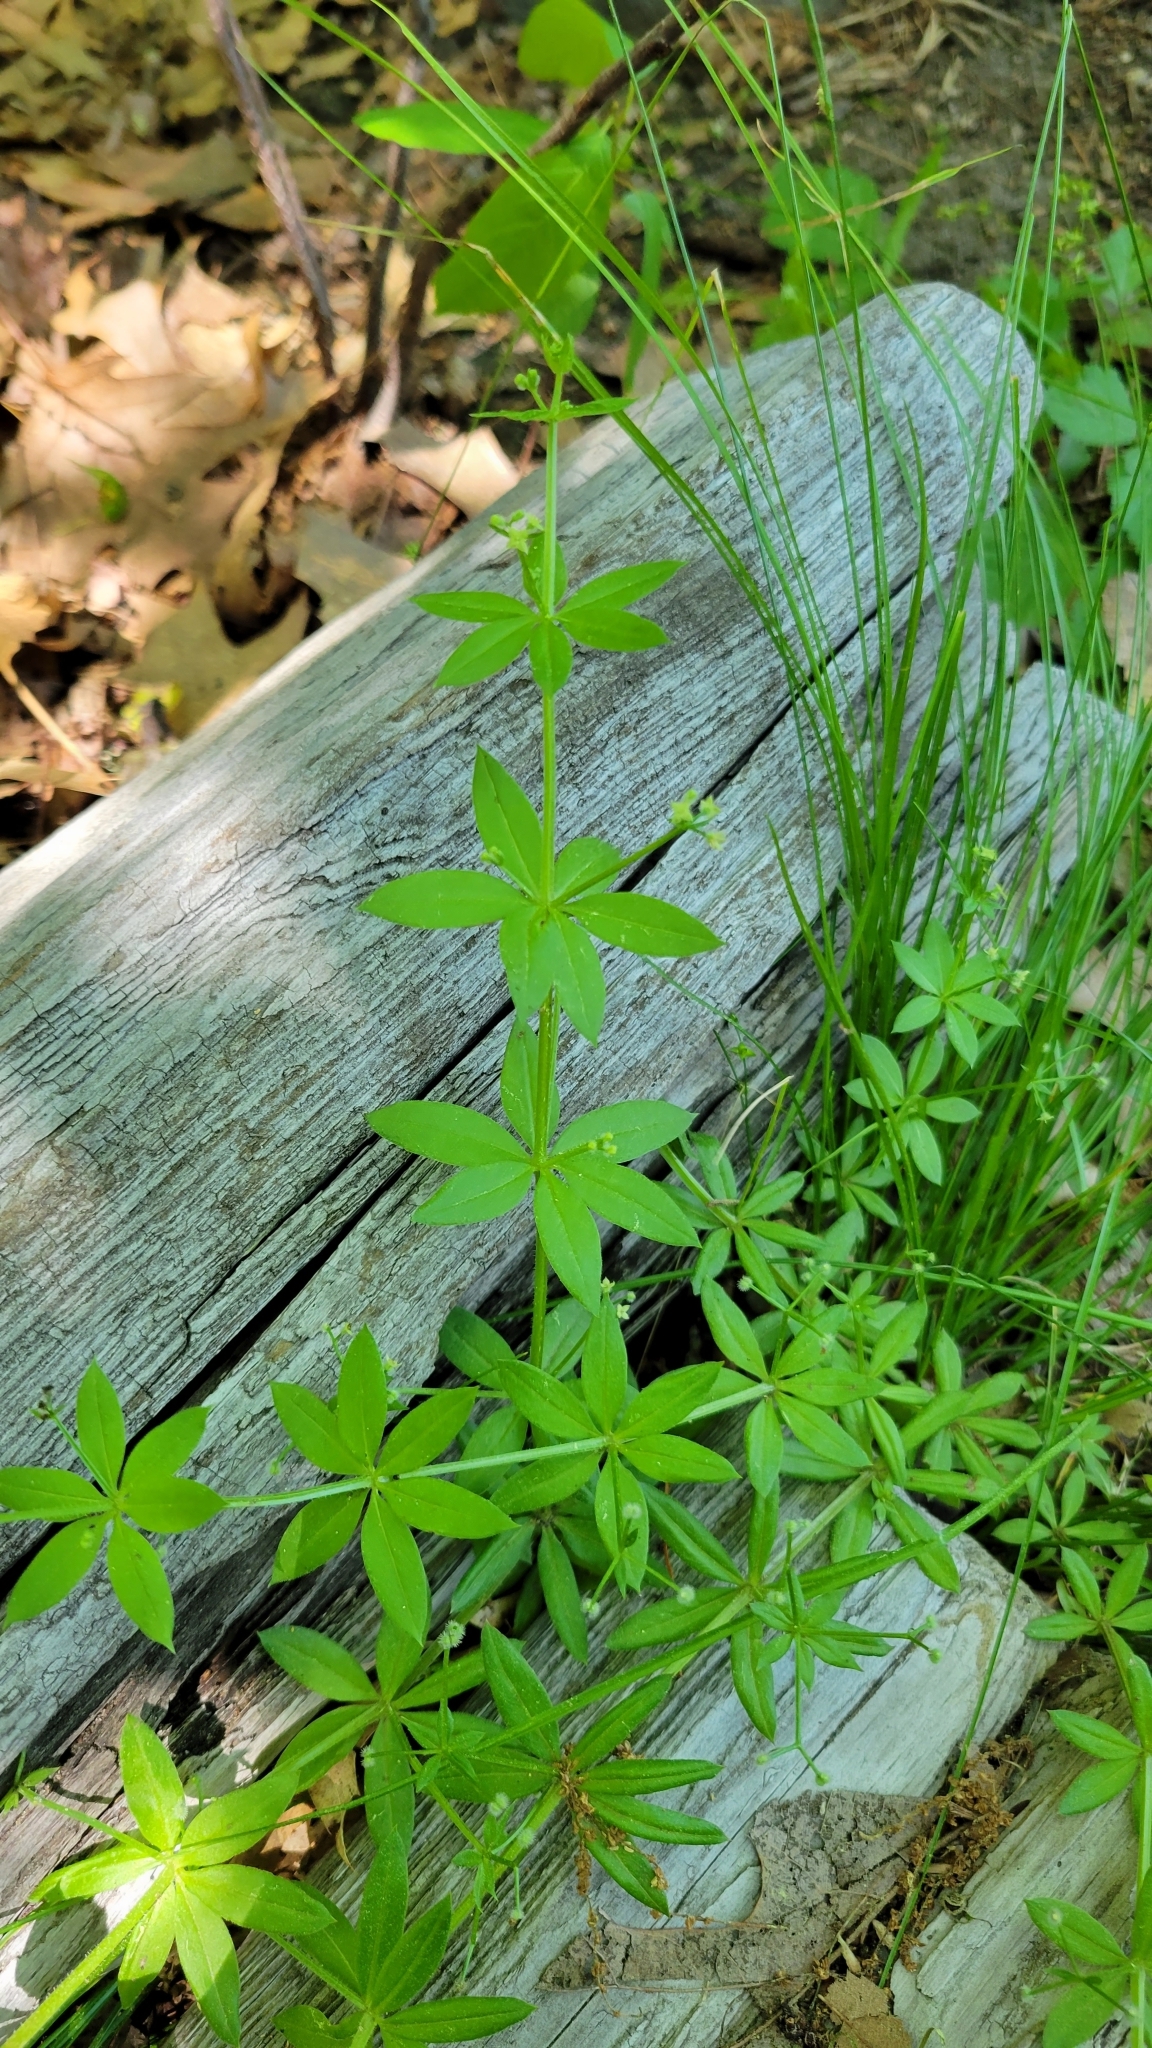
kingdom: Plantae
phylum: Tracheophyta
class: Magnoliopsida
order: Gentianales
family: Rubiaceae
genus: Galium
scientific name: Galium triflorum
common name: Fragrant bedstraw
